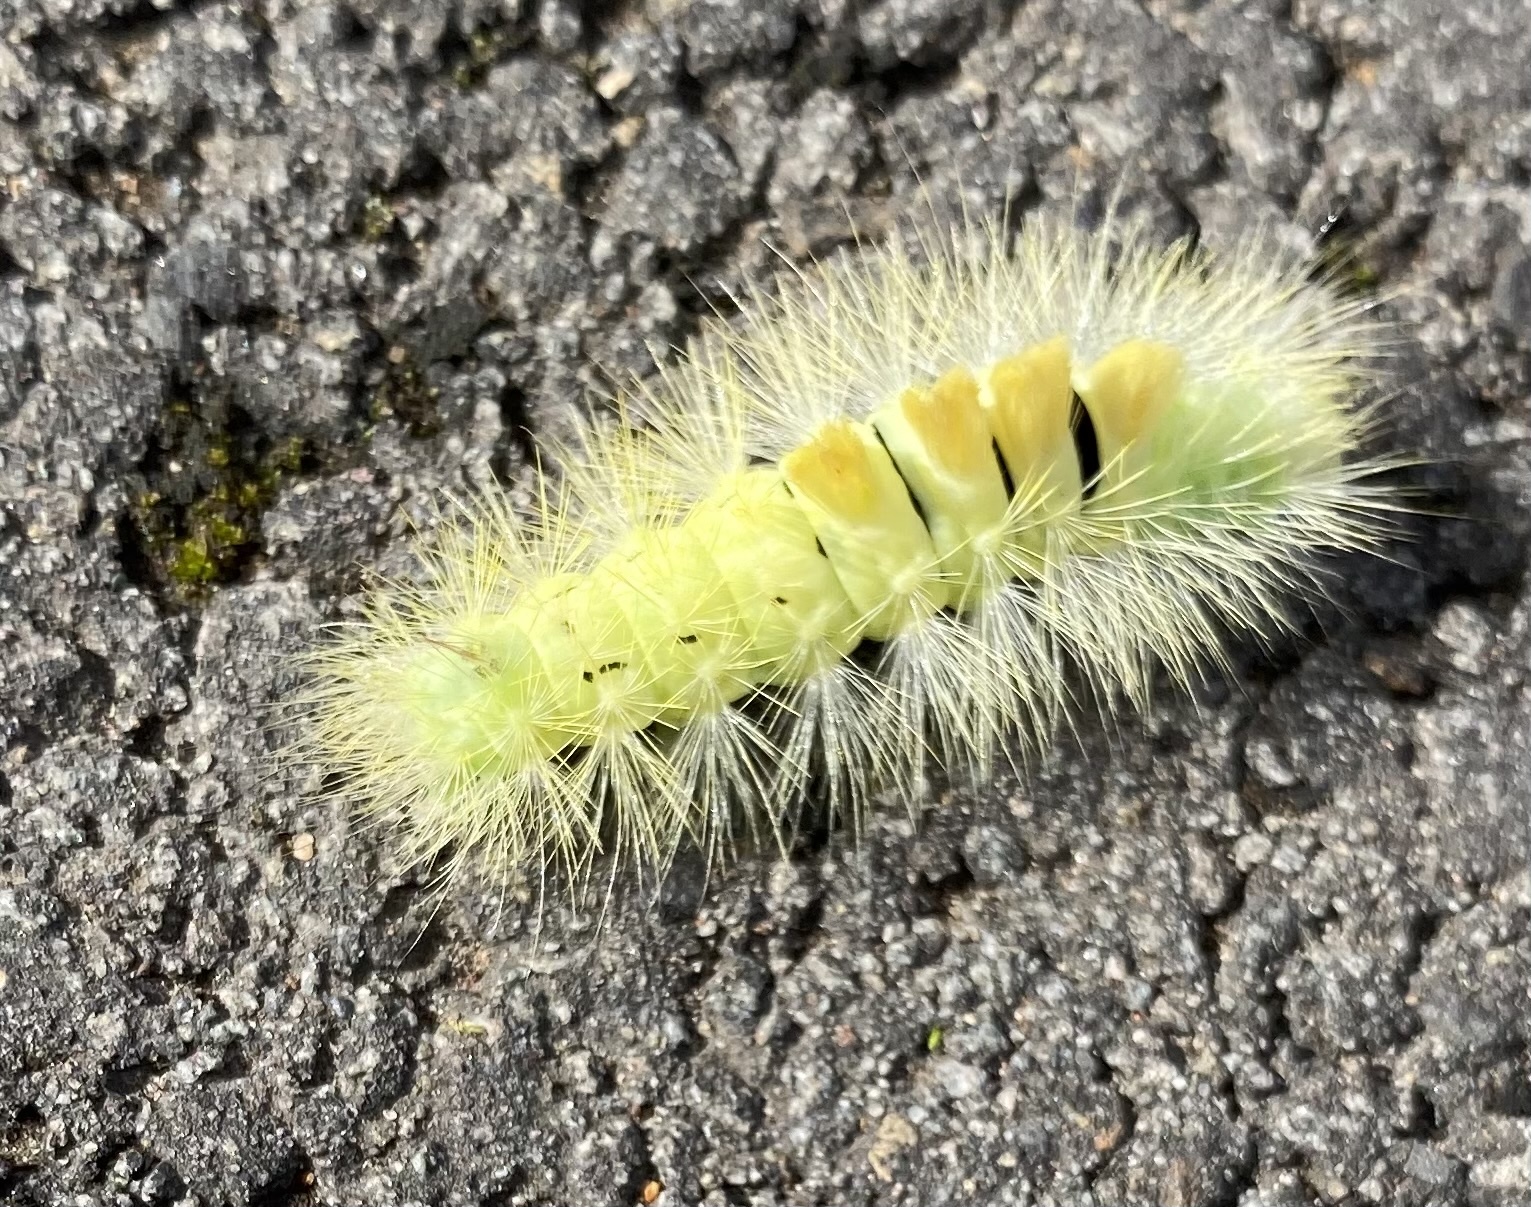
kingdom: Animalia
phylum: Arthropoda
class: Insecta
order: Lepidoptera
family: Erebidae
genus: Calliteara
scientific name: Calliteara pudibunda
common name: Pale tussock
